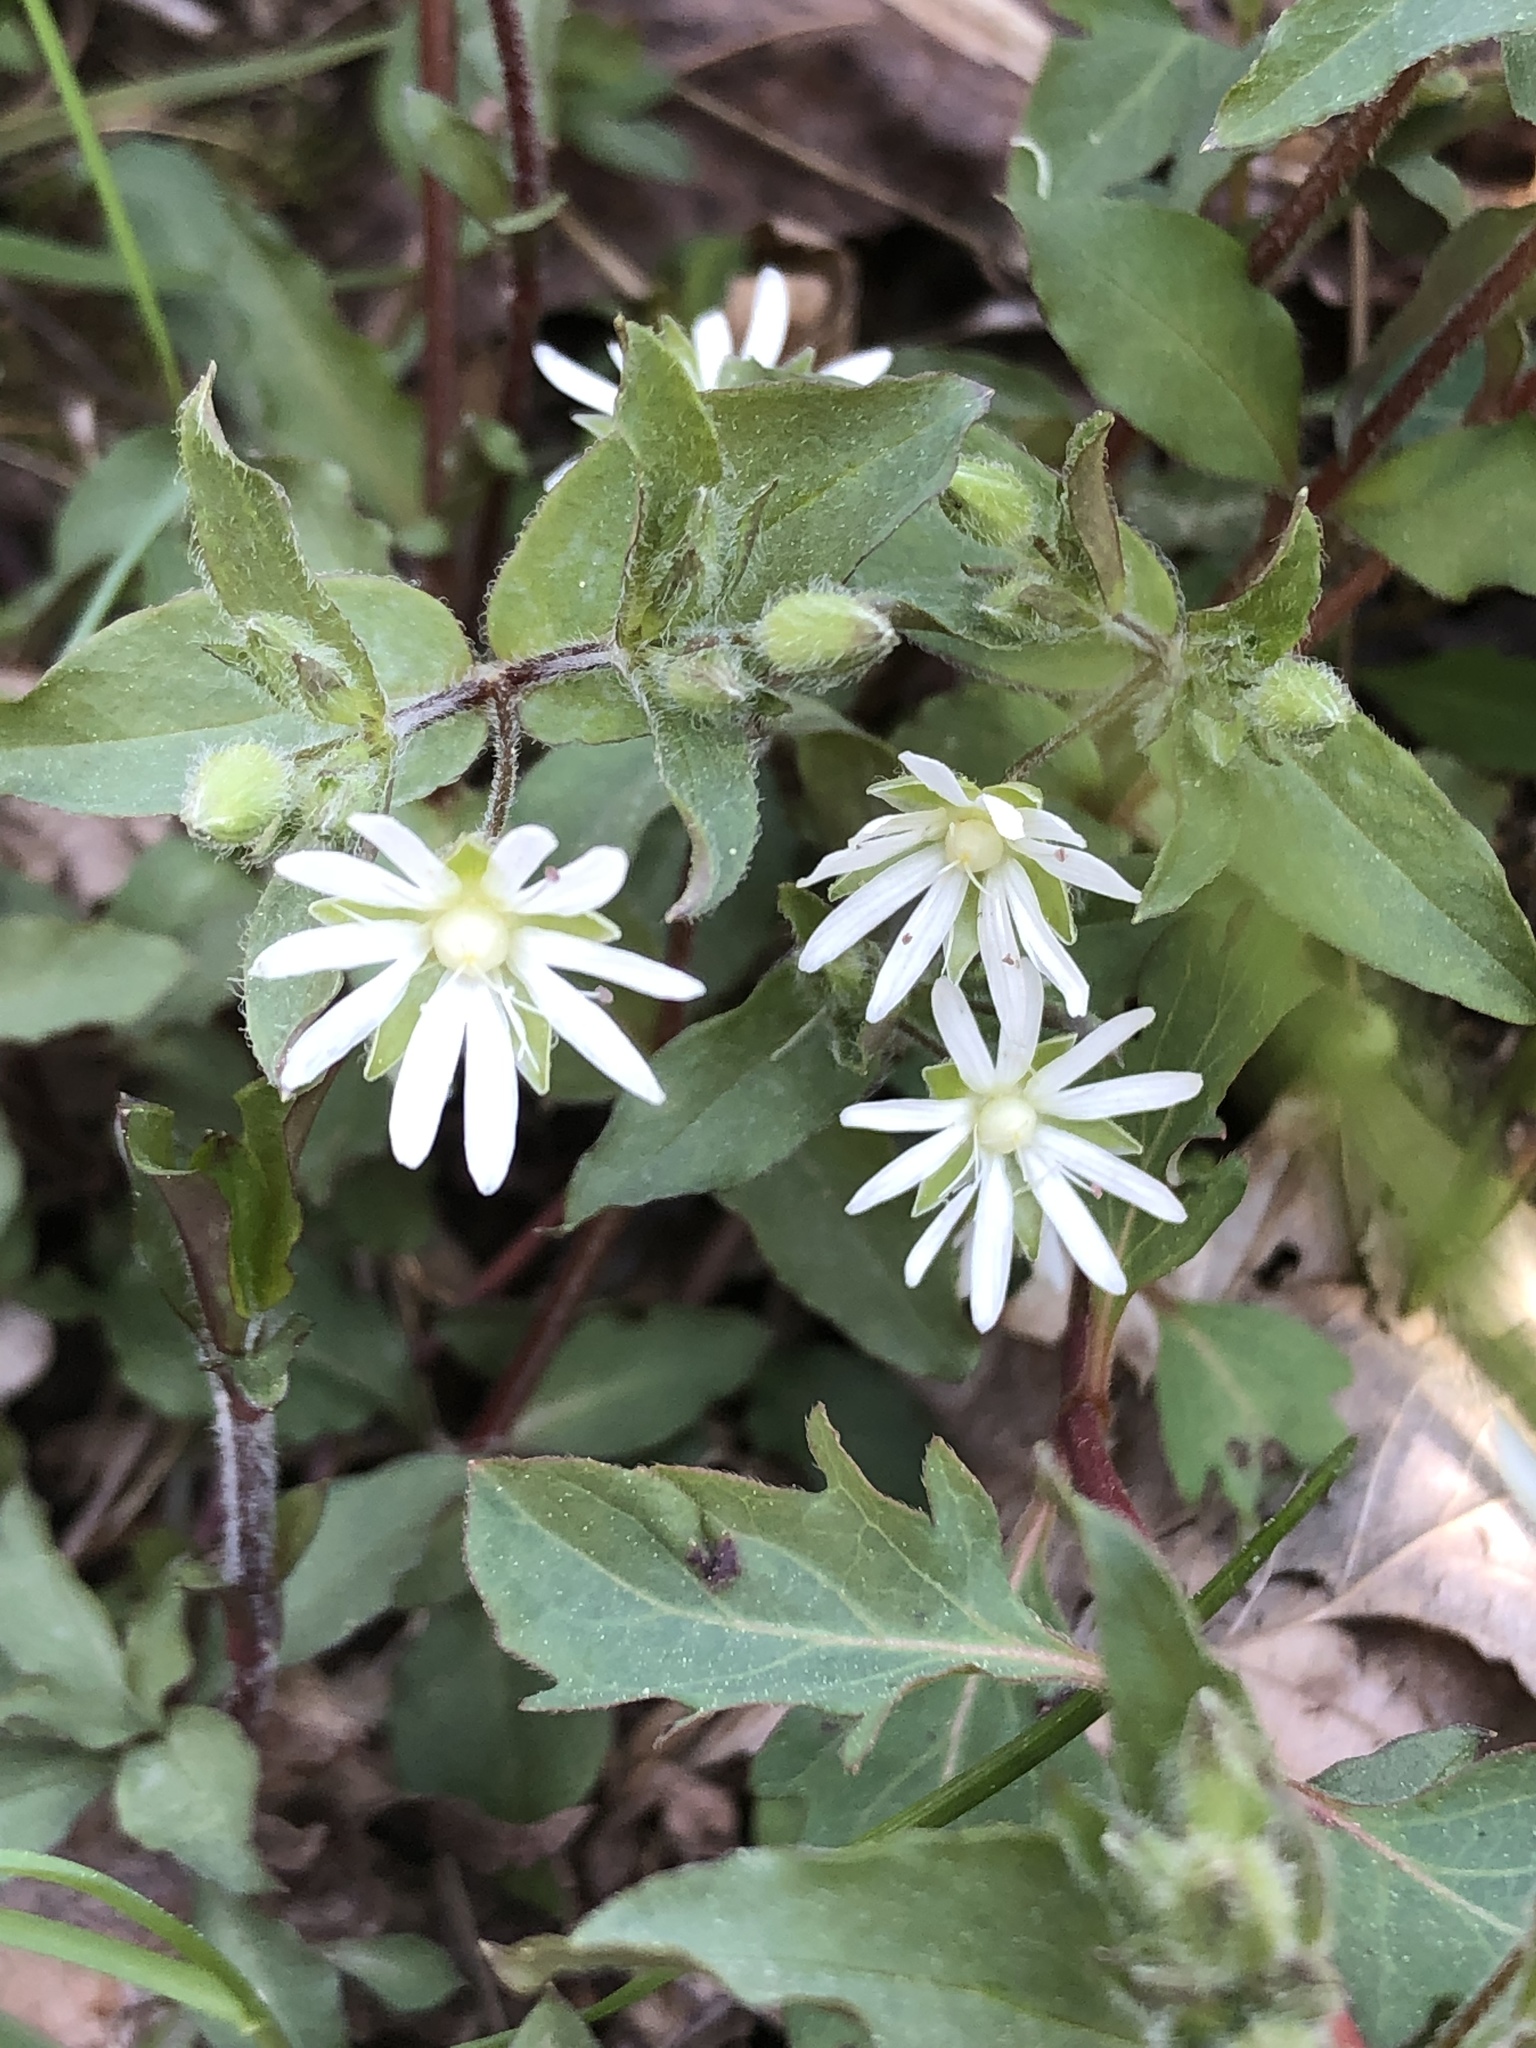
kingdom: Plantae
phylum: Tracheophyta
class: Magnoliopsida
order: Caryophyllales
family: Caryophyllaceae
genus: Stellaria
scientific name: Stellaria pubera
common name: Star chickweed
